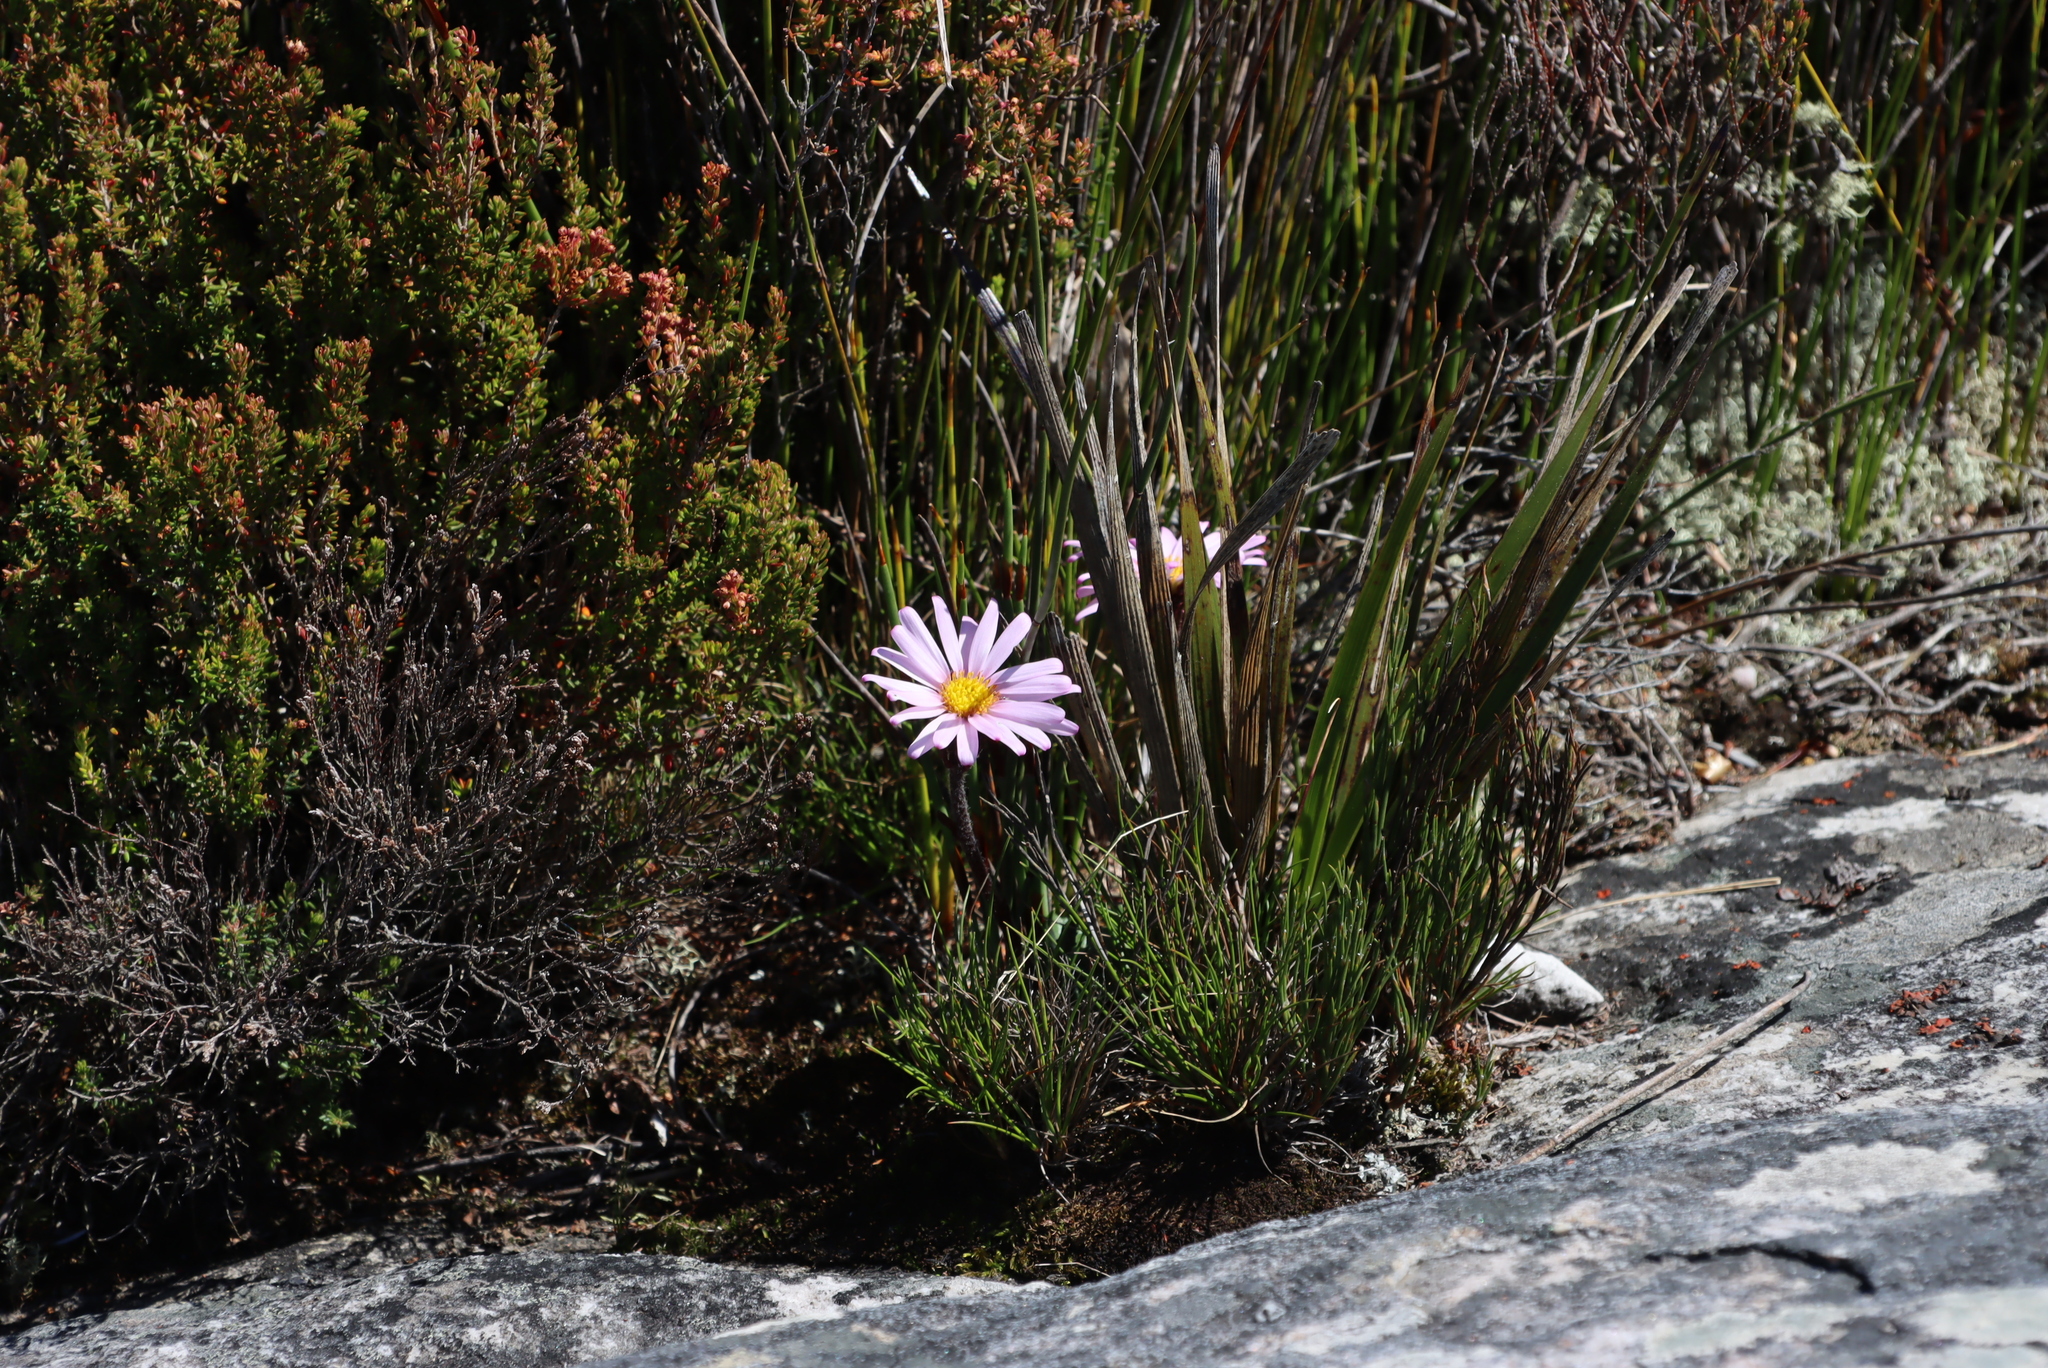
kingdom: Plantae
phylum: Tracheophyta
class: Magnoliopsida
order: Asterales
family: Asteraceae
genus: Zyrphelis
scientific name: Zyrphelis crenata
